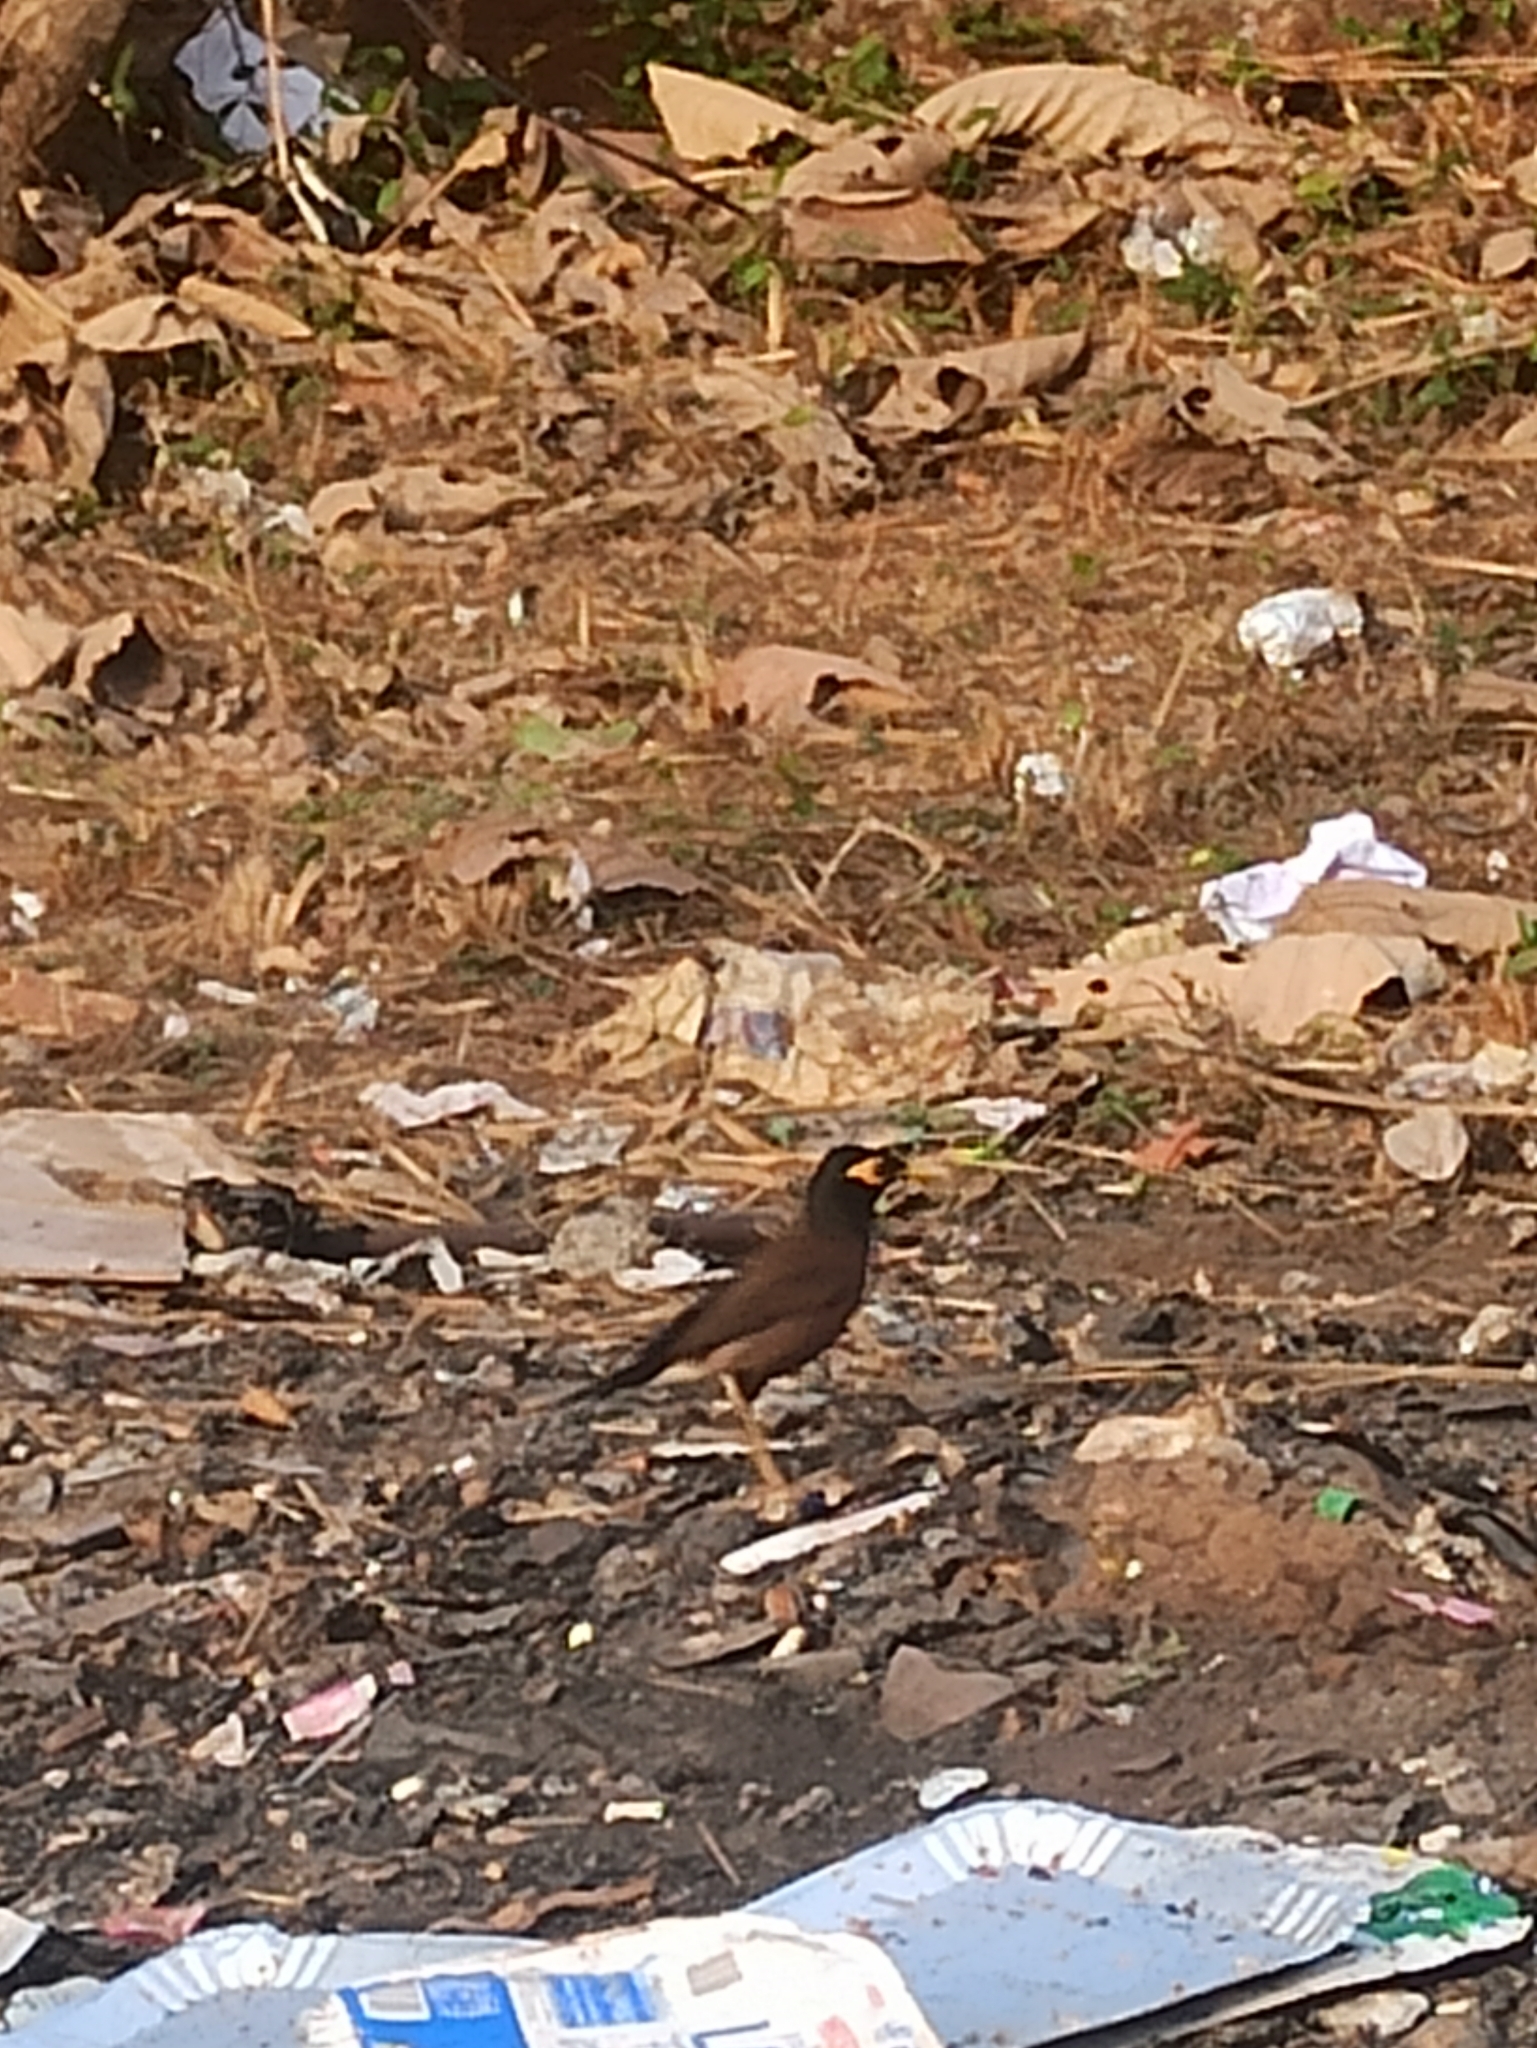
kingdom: Animalia
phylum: Chordata
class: Aves
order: Passeriformes
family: Sturnidae
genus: Acridotheres
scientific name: Acridotheres tristis
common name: Common myna
